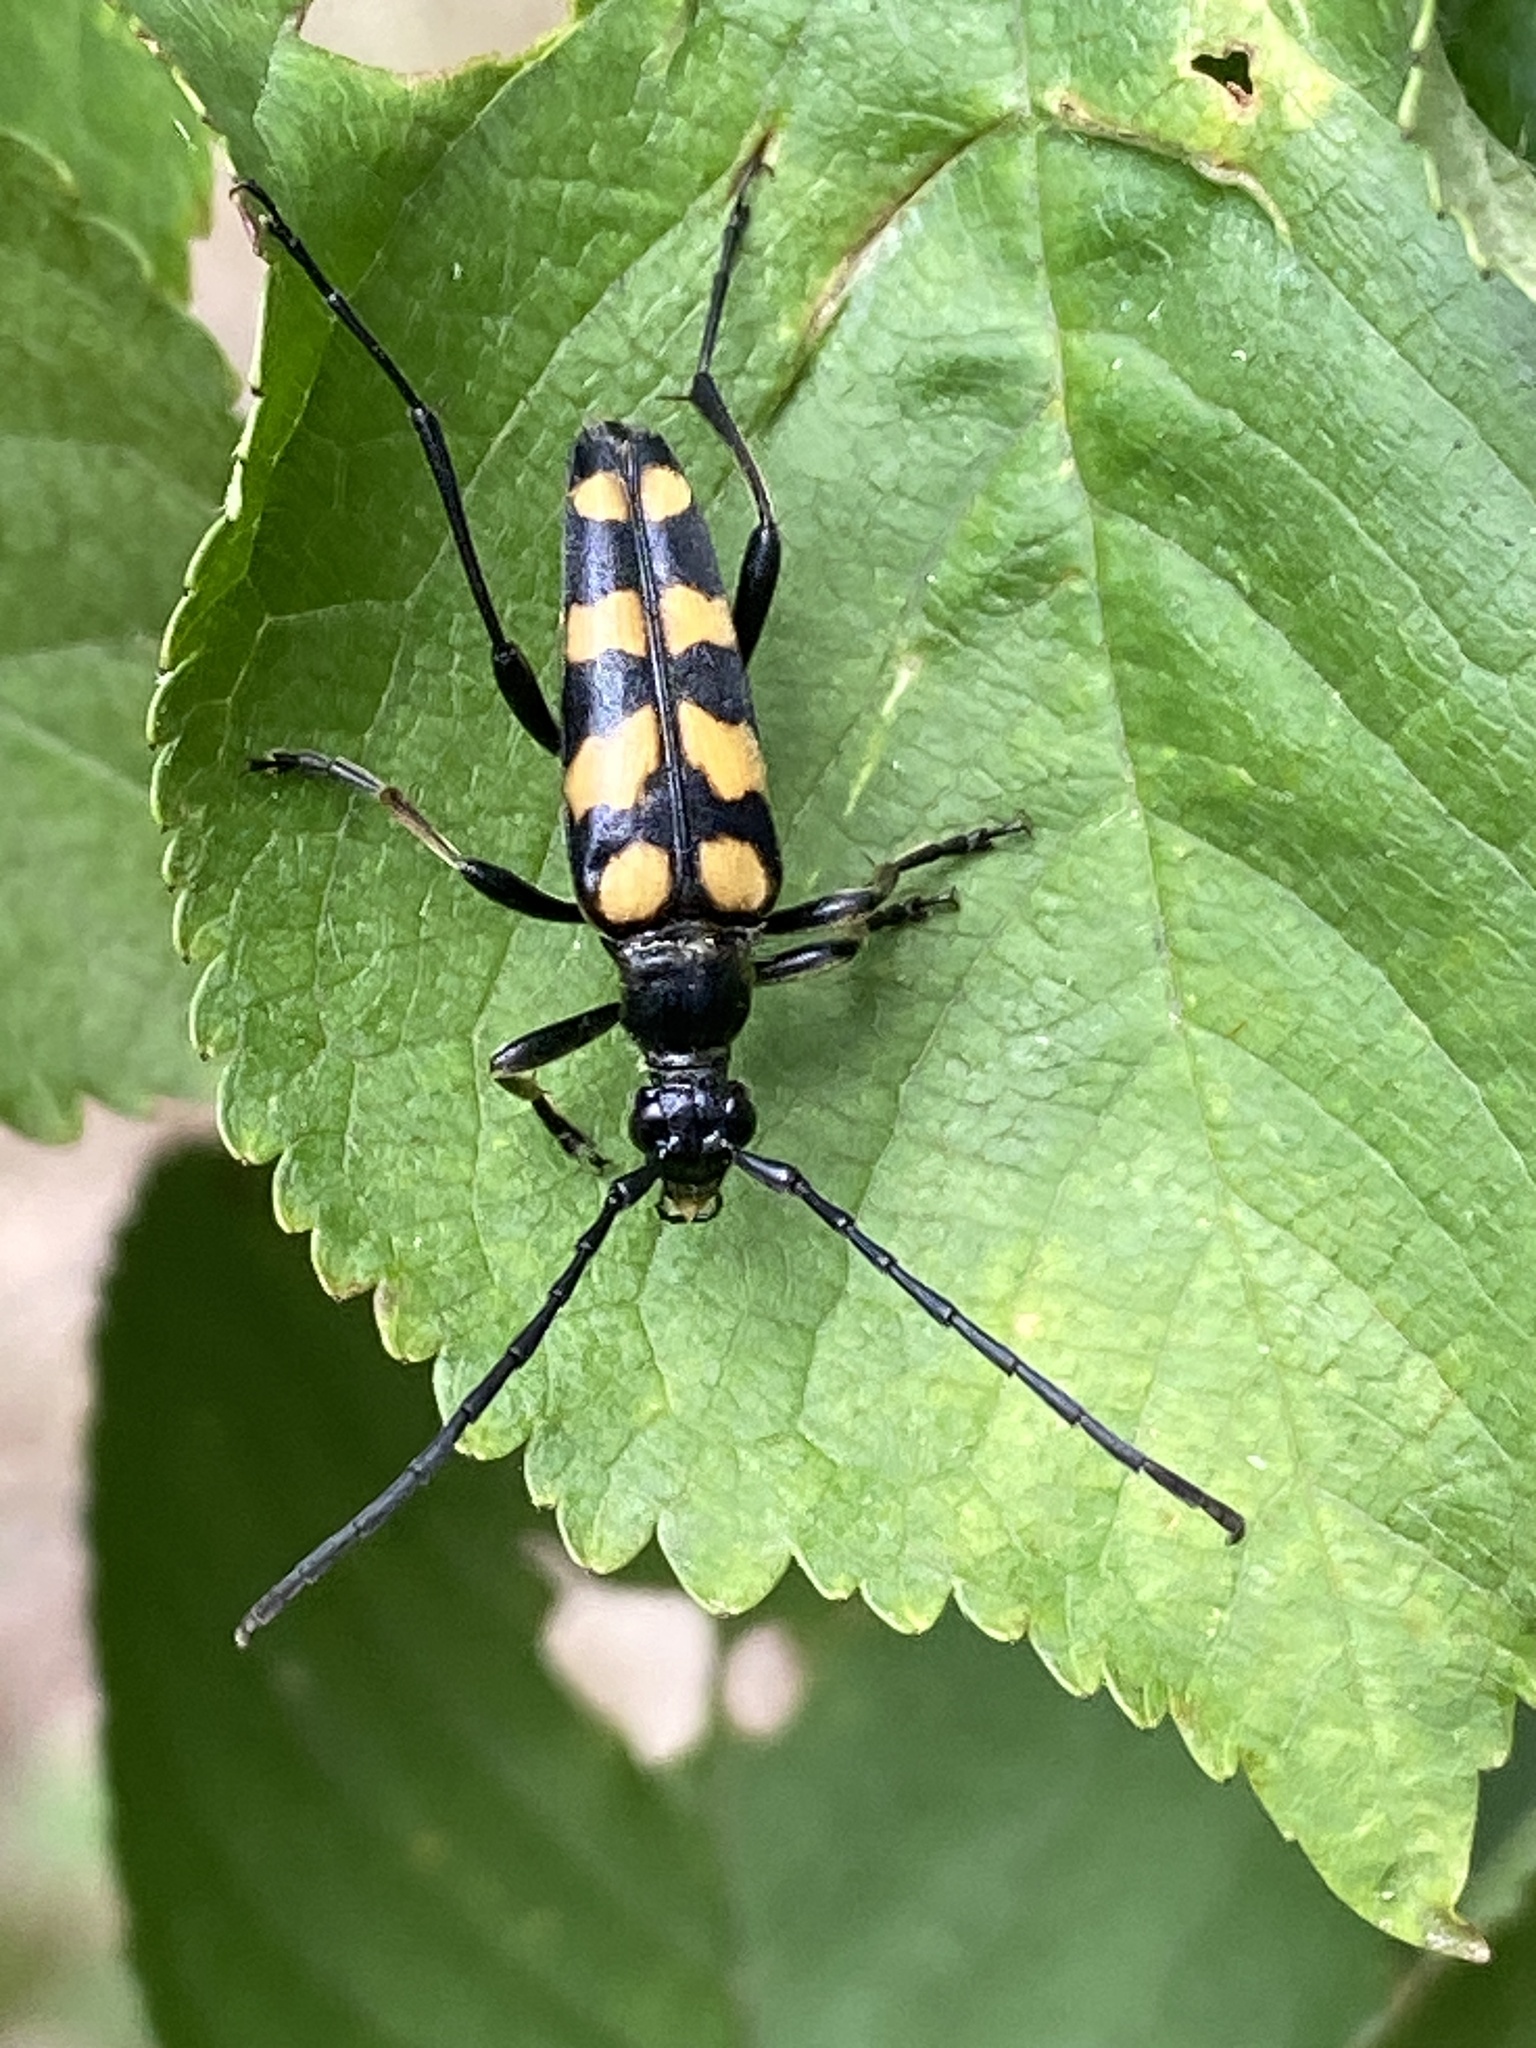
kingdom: Animalia
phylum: Arthropoda
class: Insecta
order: Coleoptera
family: Cerambycidae
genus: Leptura
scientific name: Leptura quadrifasciata
